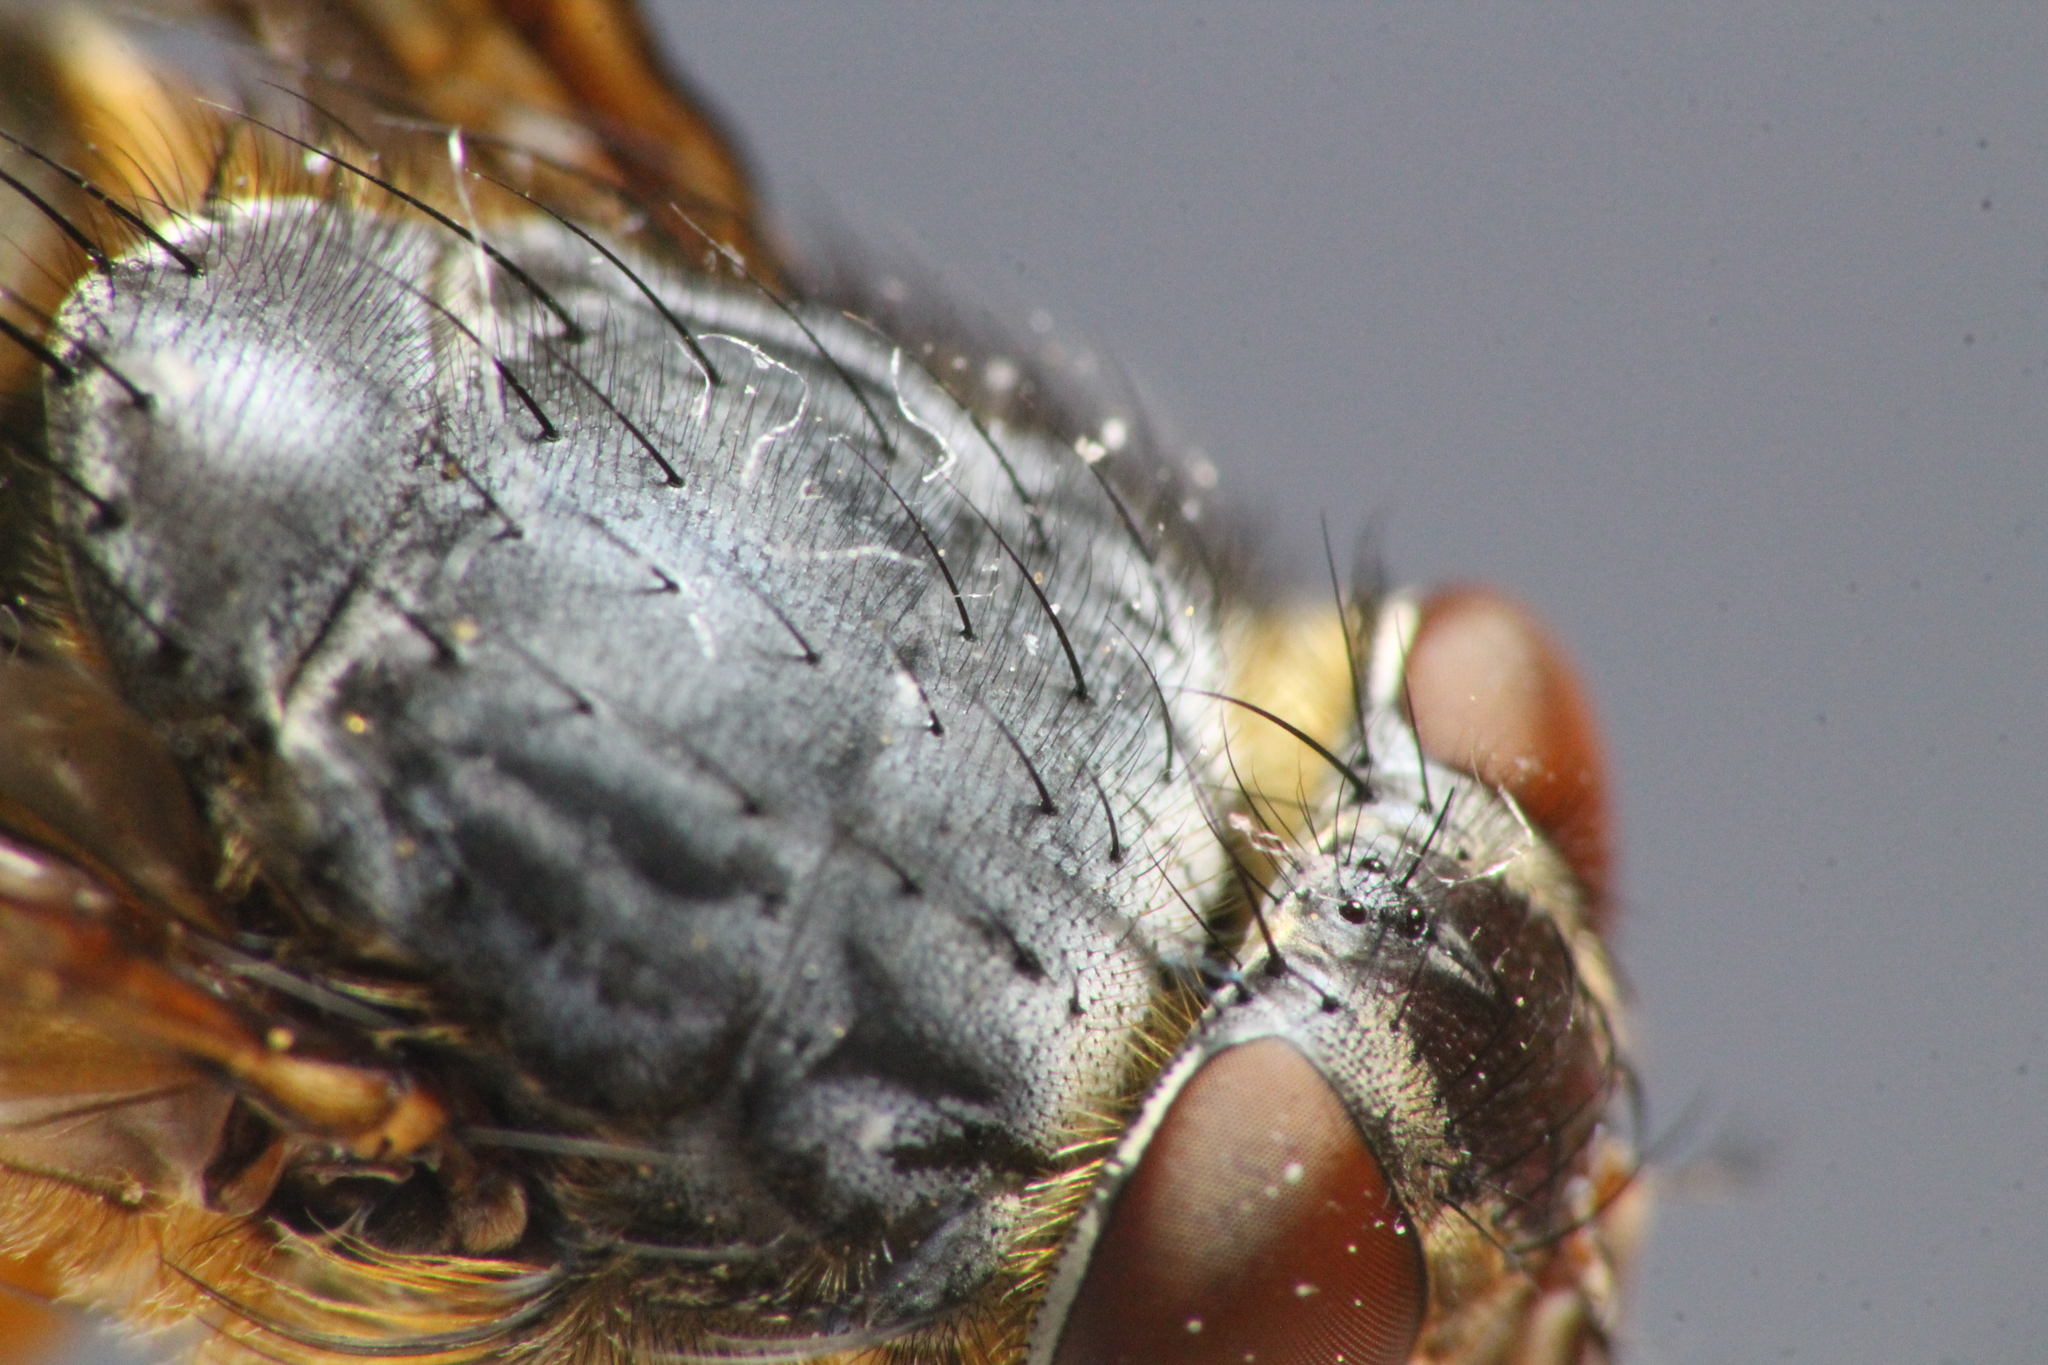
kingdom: Animalia
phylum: Arthropoda
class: Insecta
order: Diptera
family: Calliphoridae
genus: Calliphora
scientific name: Calliphora stygia
